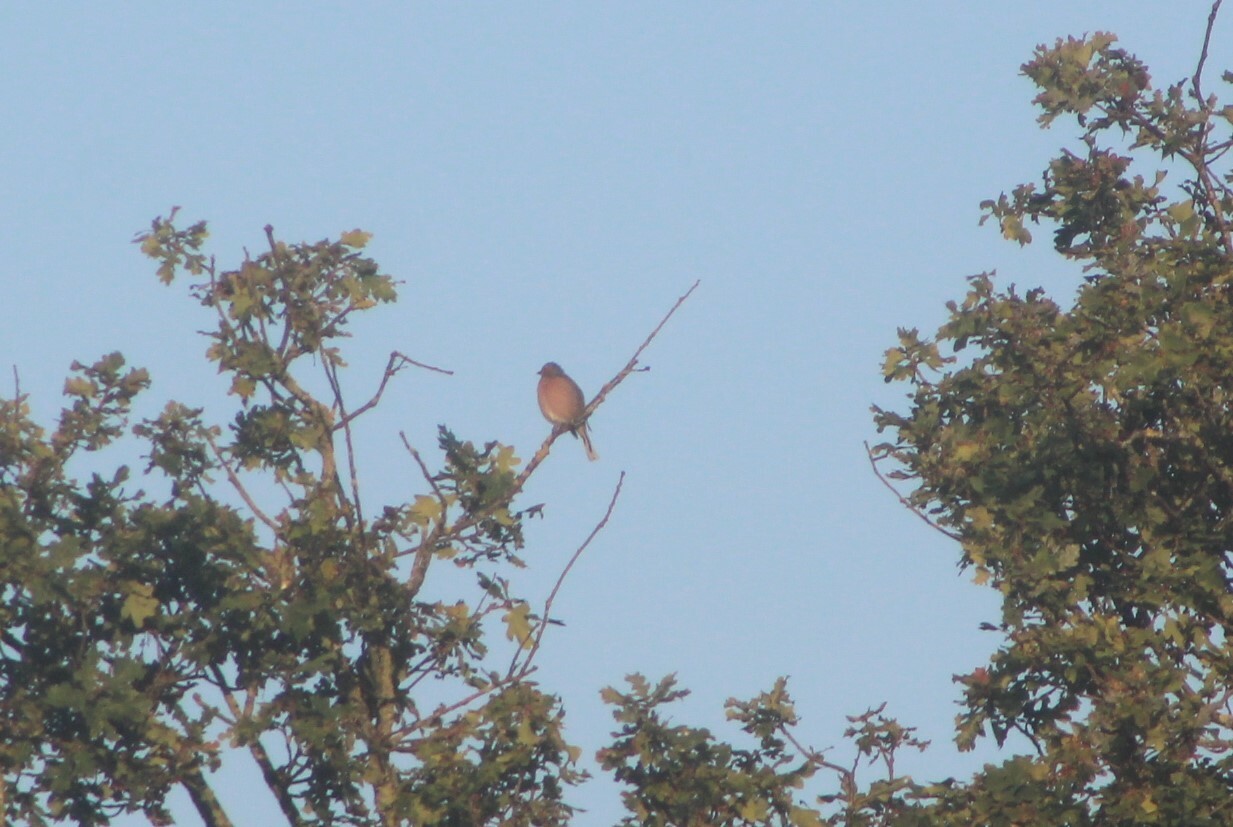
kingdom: Animalia
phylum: Chordata
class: Aves
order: Passeriformes
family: Fringillidae
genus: Fringilla
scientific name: Fringilla coelebs
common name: Common chaffinch
